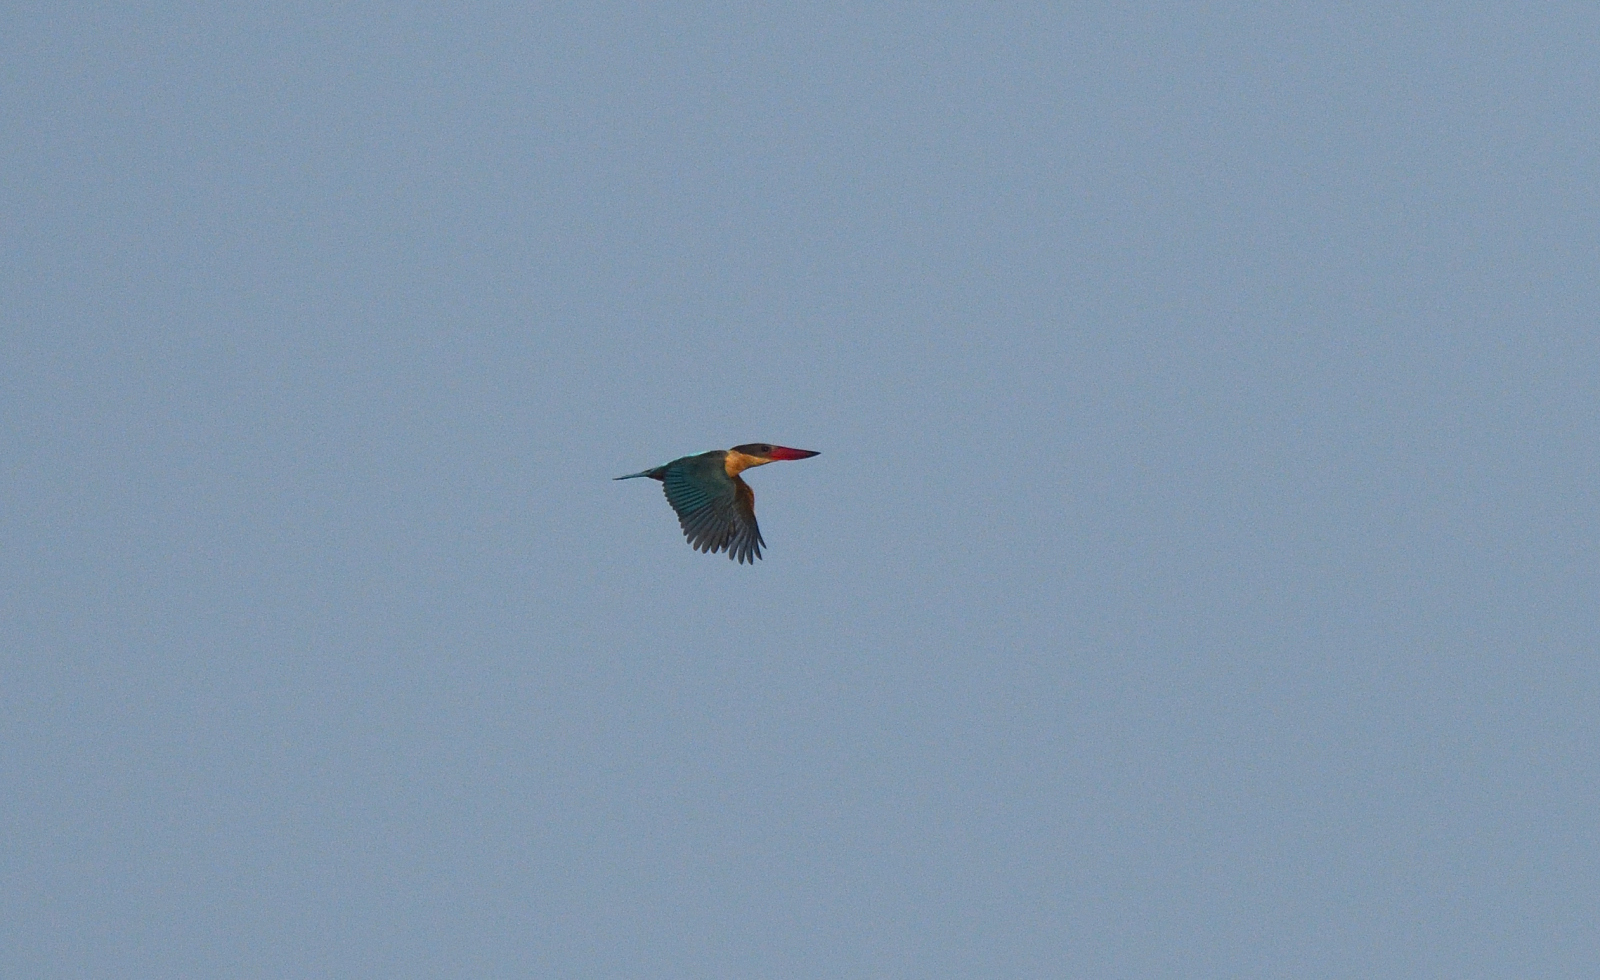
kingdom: Animalia
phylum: Chordata
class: Aves
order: Coraciiformes
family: Alcedinidae
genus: Pelargopsis
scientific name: Pelargopsis capensis
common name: Stork-billed kingfisher
